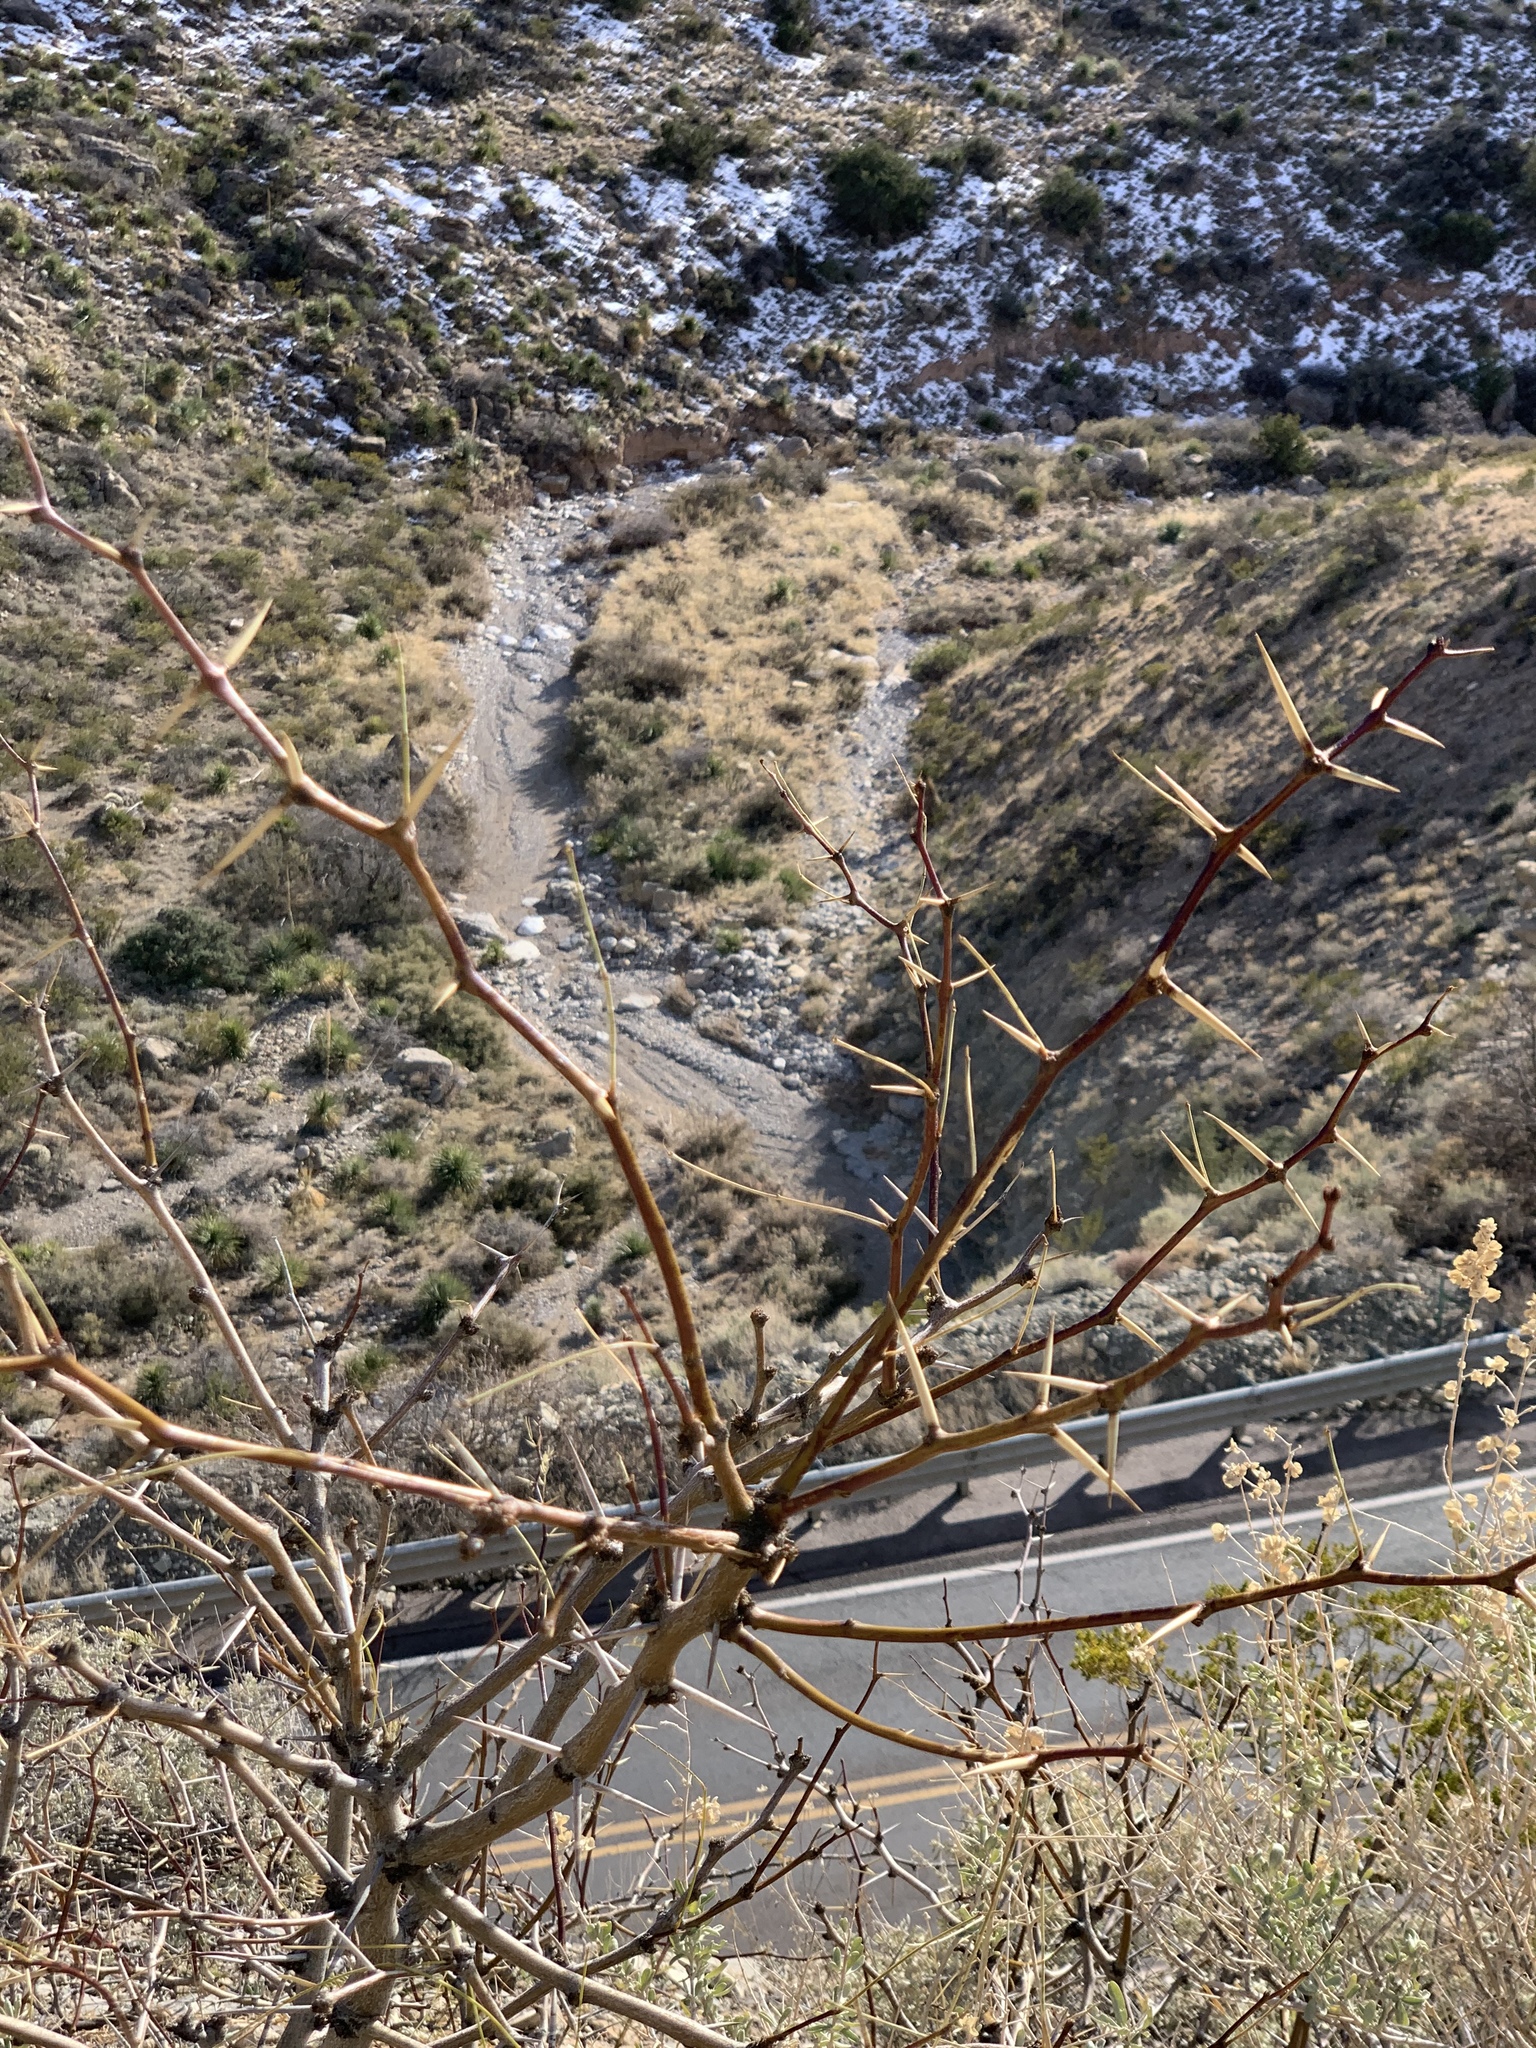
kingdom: Plantae
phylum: Tracheophyta
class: Magnoliopsida
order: Fabales
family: Fabaceae
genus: Prosopis
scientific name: Prosopis glandulosa
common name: Honey mesquite
